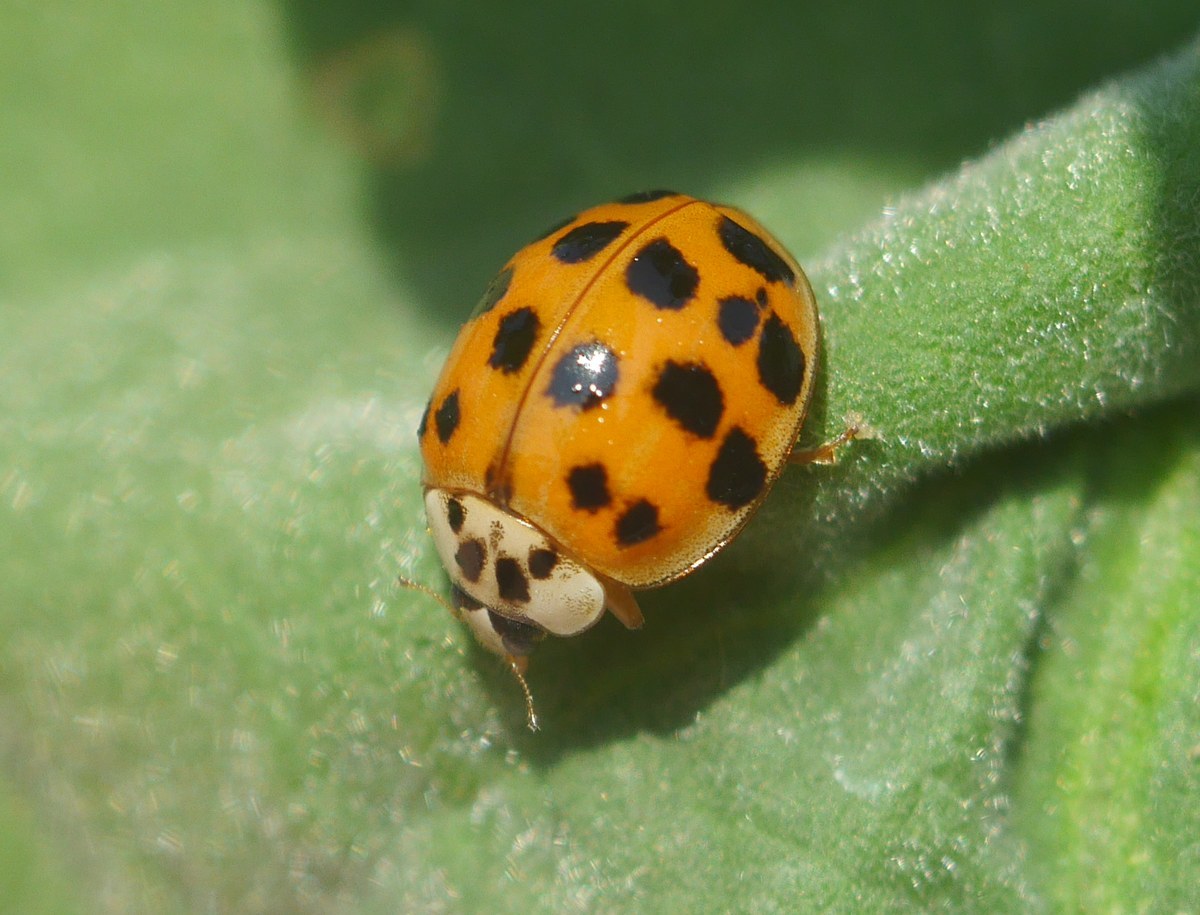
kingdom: Animalia
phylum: Arthropoda
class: Insecta
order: Coleoptera
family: Coccinellidae
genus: Harmonia
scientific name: Harmonia axyridis
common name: Harlequin ladybird
